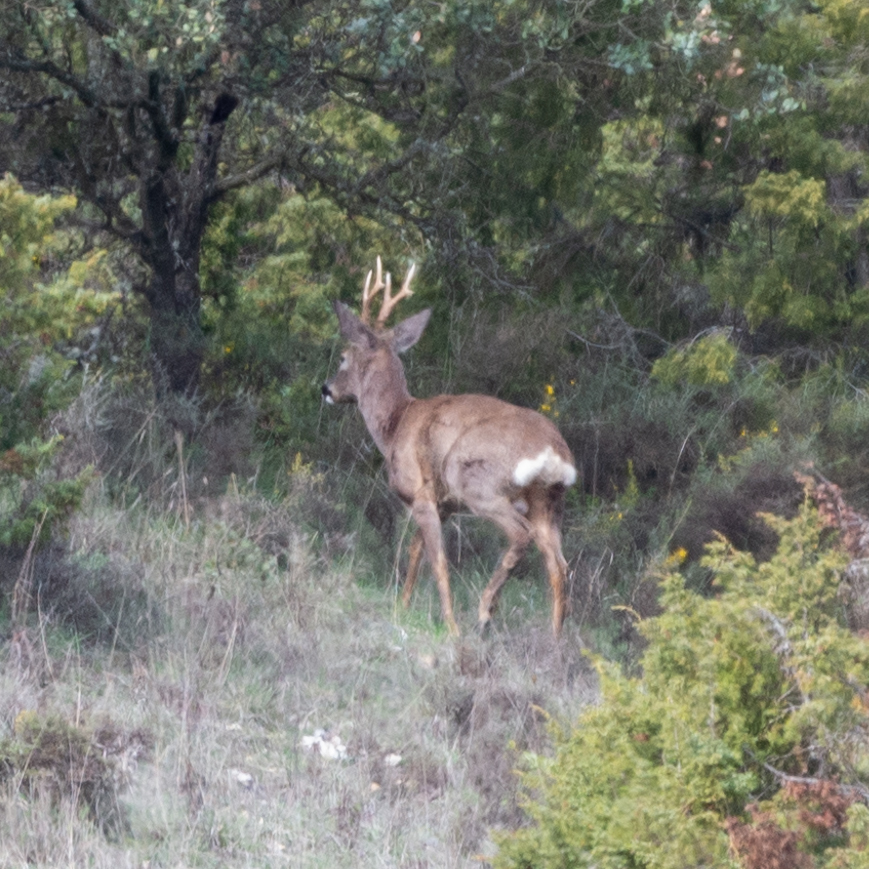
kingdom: Animalia
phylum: Chordata
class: Mammalia
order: Artiodactyla
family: Cervidae
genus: Capreolus
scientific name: Capreolus capreolus
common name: Western roe deer
